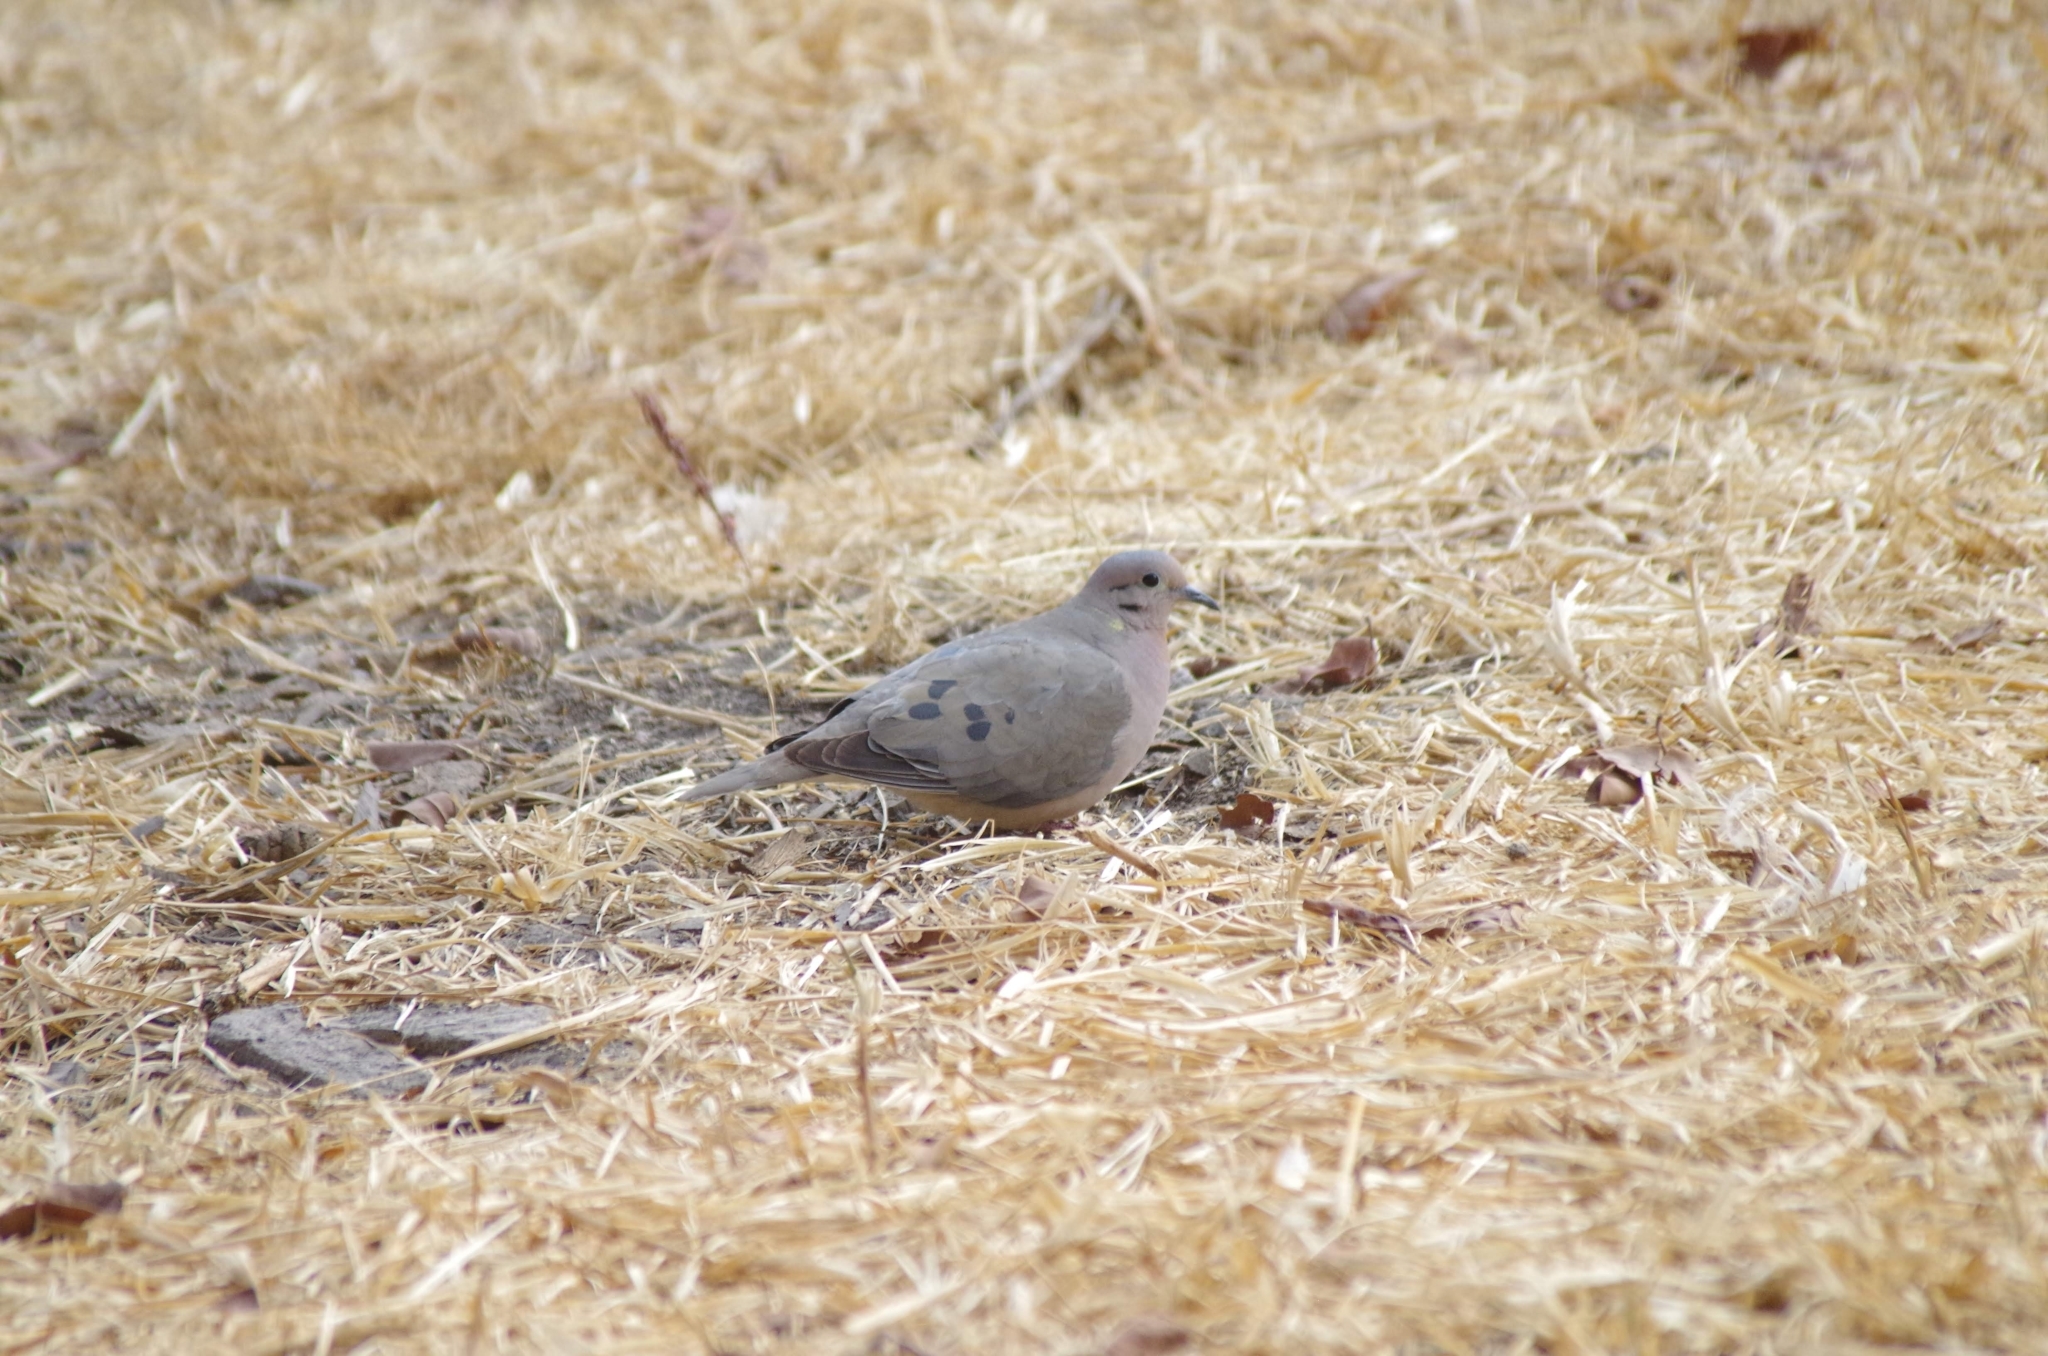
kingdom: Animalia
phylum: Chordata
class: Aves
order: Columbiformes
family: Columbidae
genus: Zenaida
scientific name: Zenaida auriculata
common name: Eared dove
